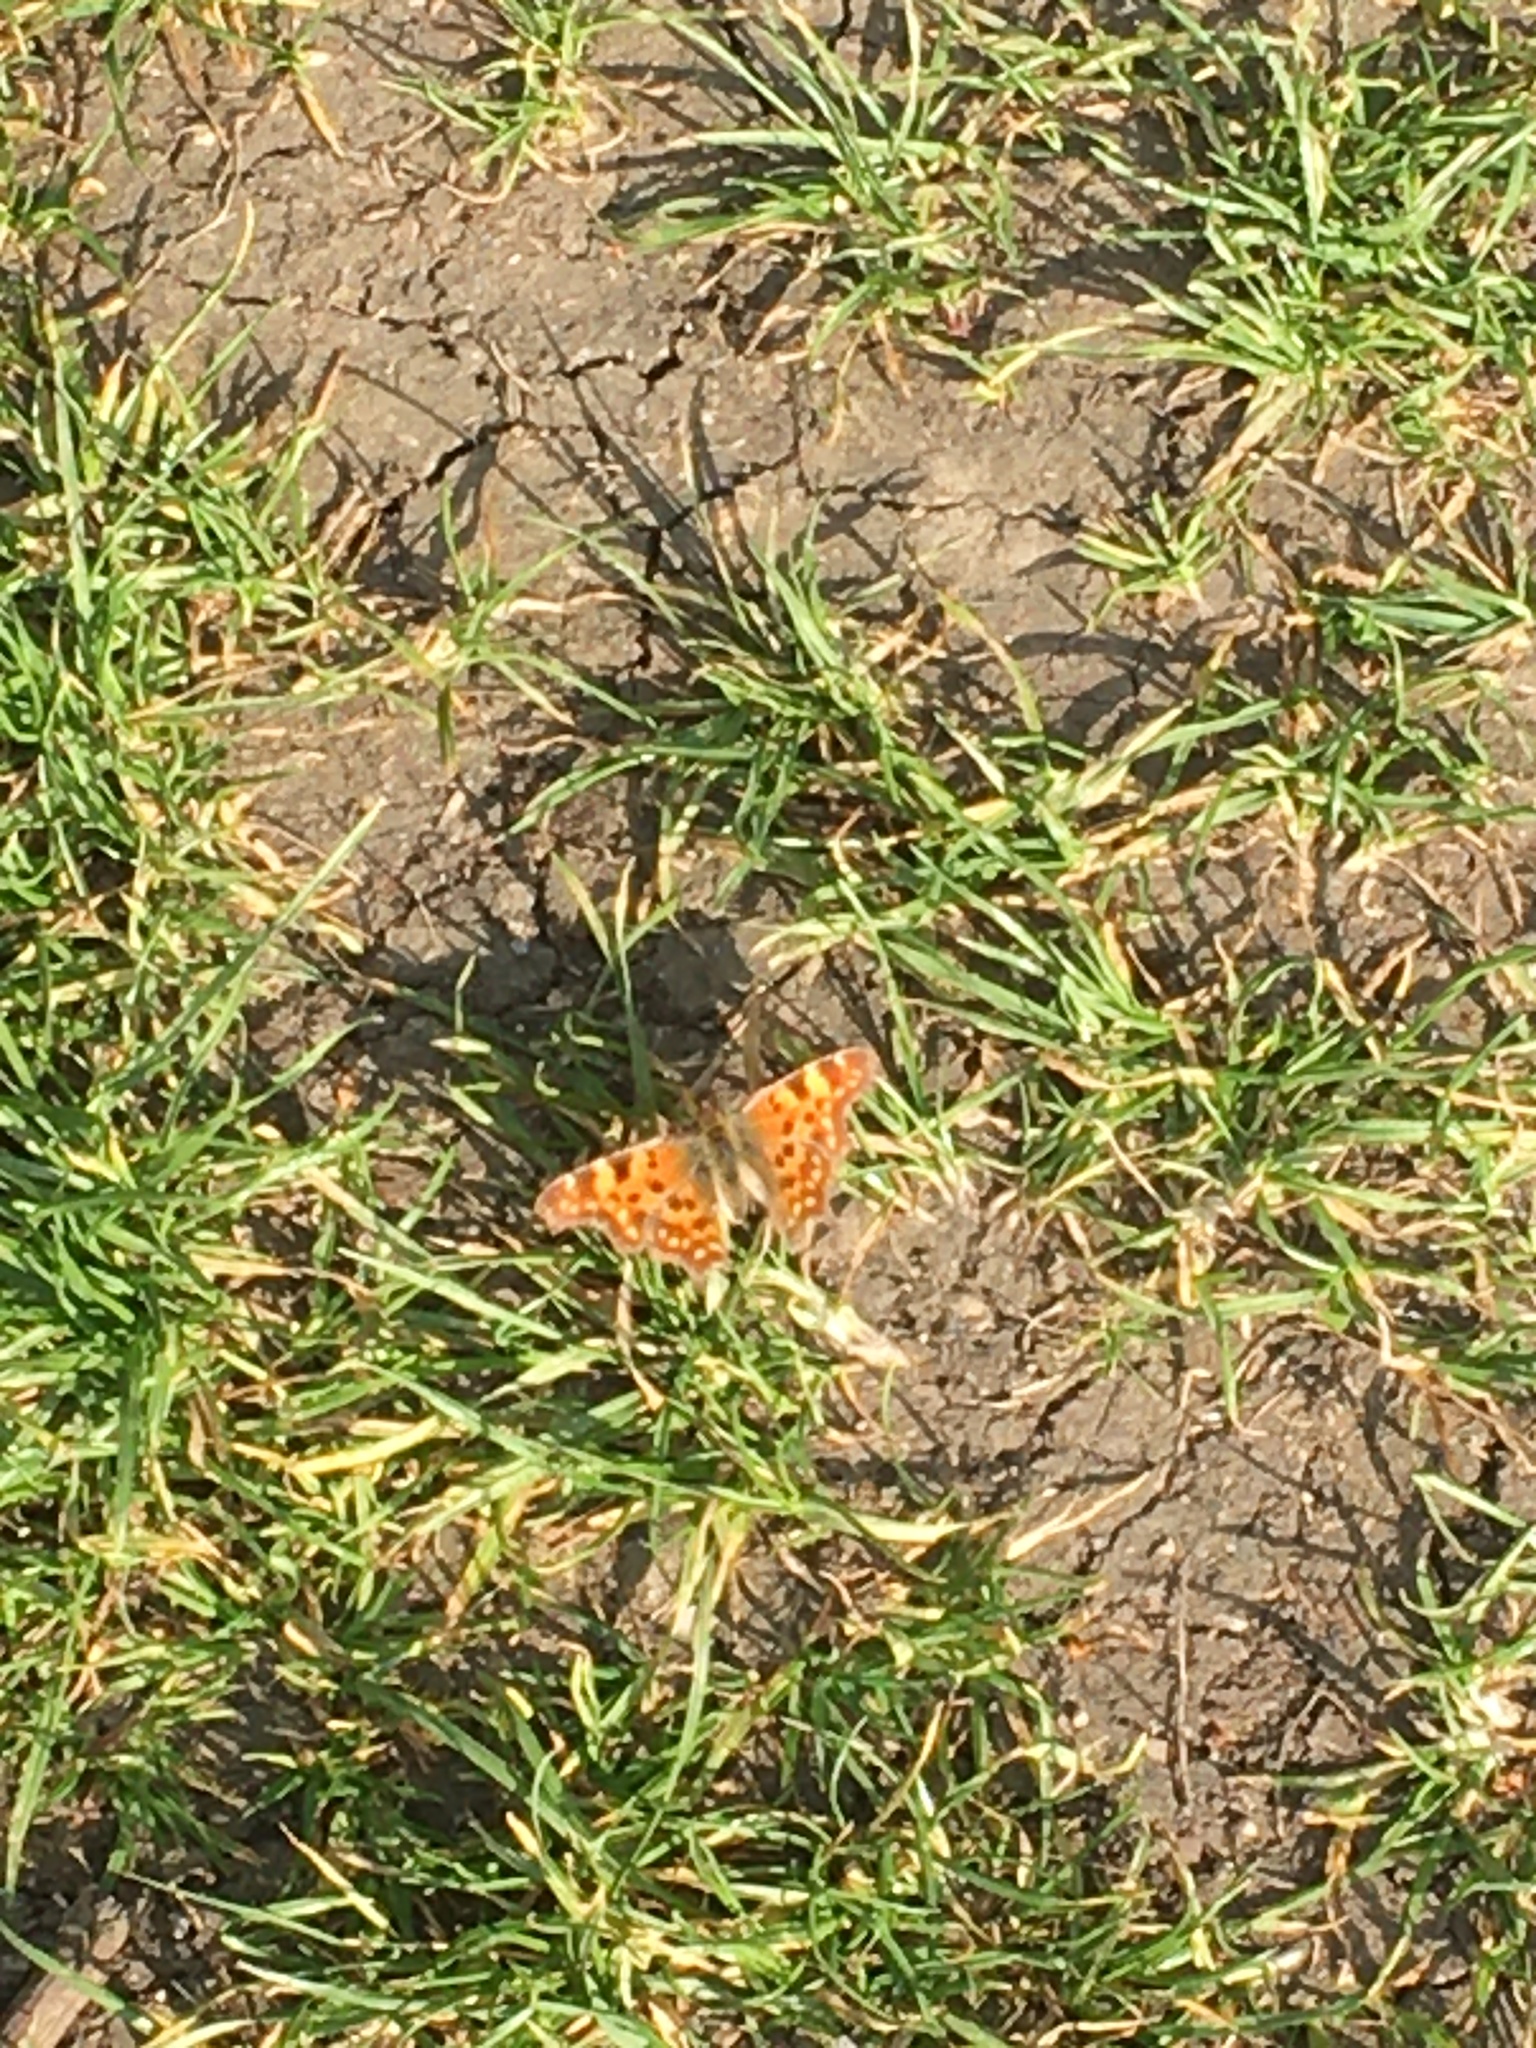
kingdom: Animalia
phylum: Arthropoda
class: Insecta
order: Lepidoptera
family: Nymphalidae
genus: Polygonia
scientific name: Polygonia c-album
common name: Comma
